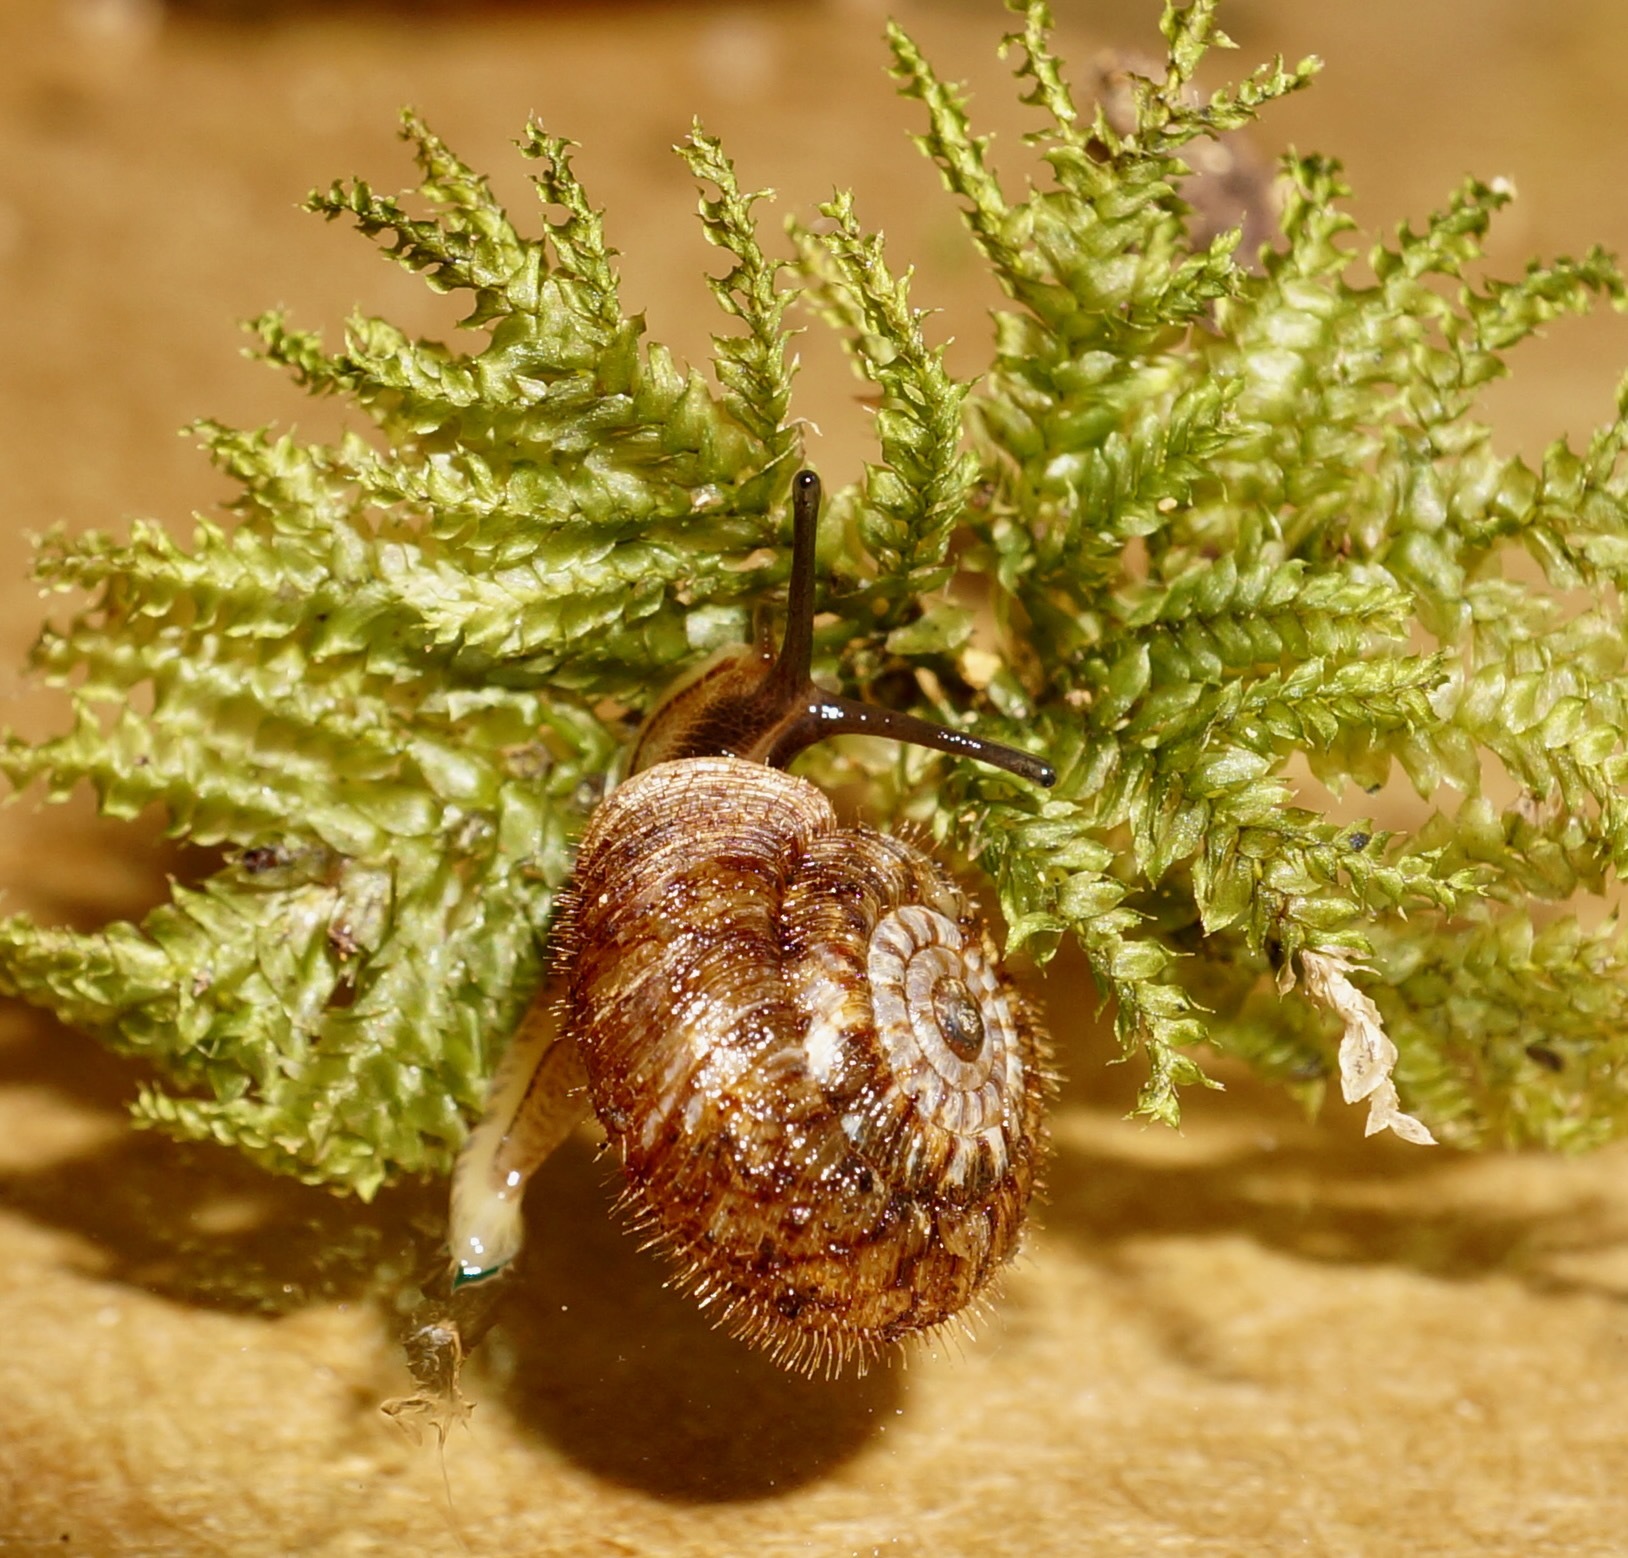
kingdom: Animalia
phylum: Mollusca
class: Gastropoda
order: Stylommatophora
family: Charopidae
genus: Neophenacohelix
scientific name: Neophenacohelix ziczac
